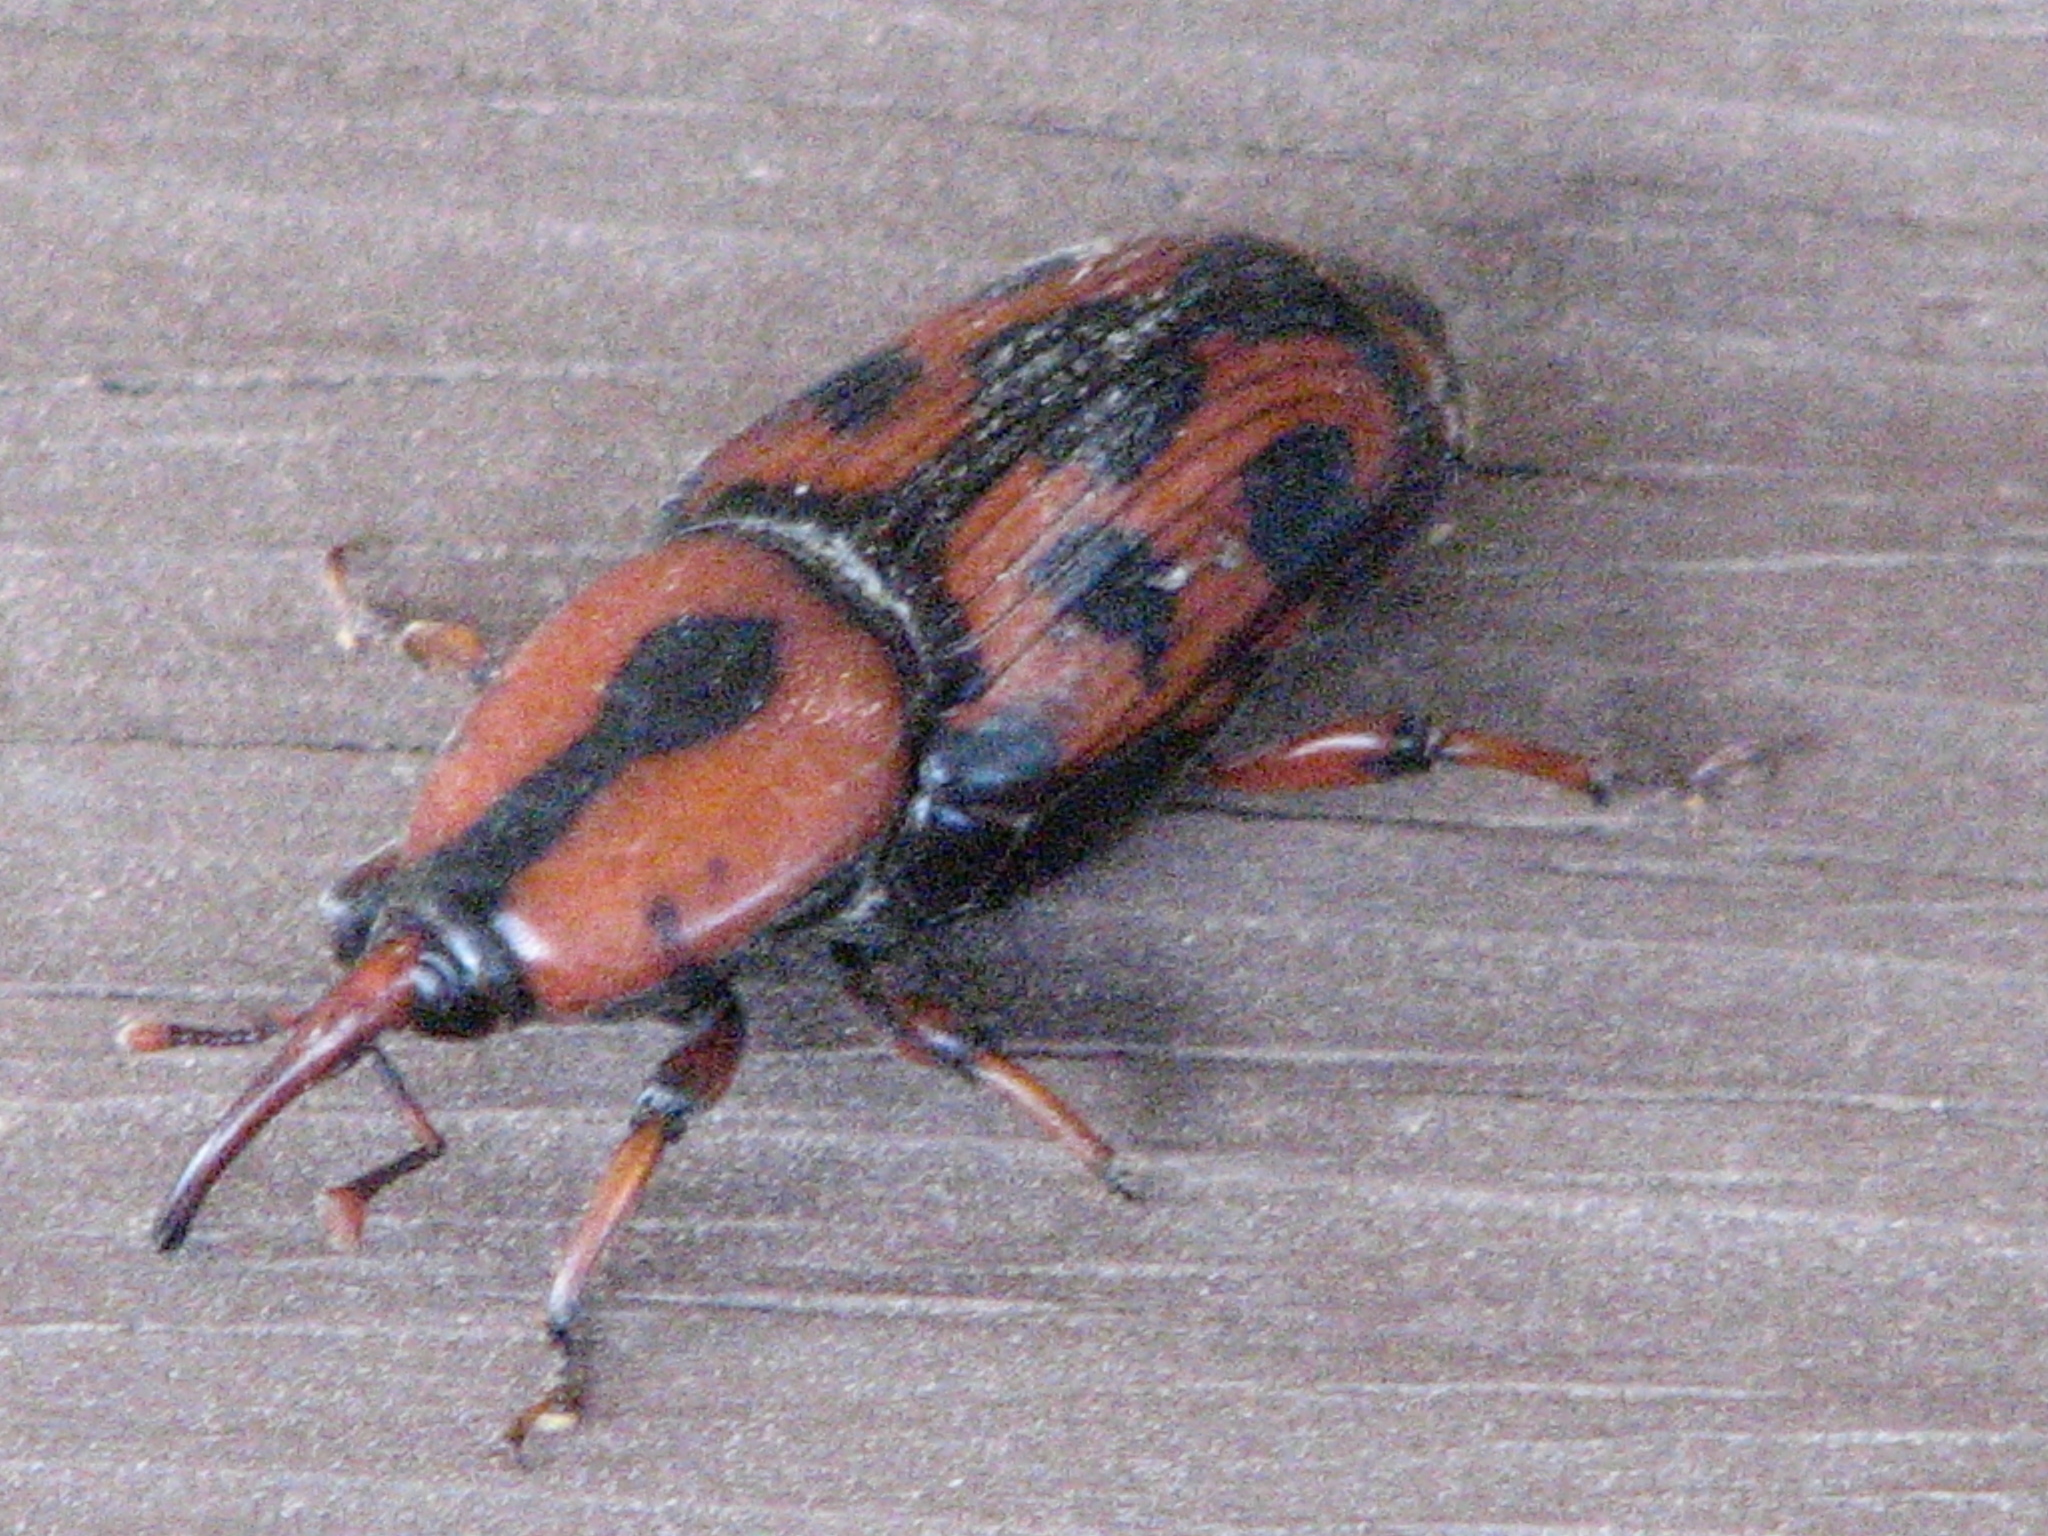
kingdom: Animalia
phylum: Arthropoda
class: Insecta
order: Coleoptera
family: Dryophthoridae
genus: Rhynchophorus
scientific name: Rhynchophorus cruentatus
